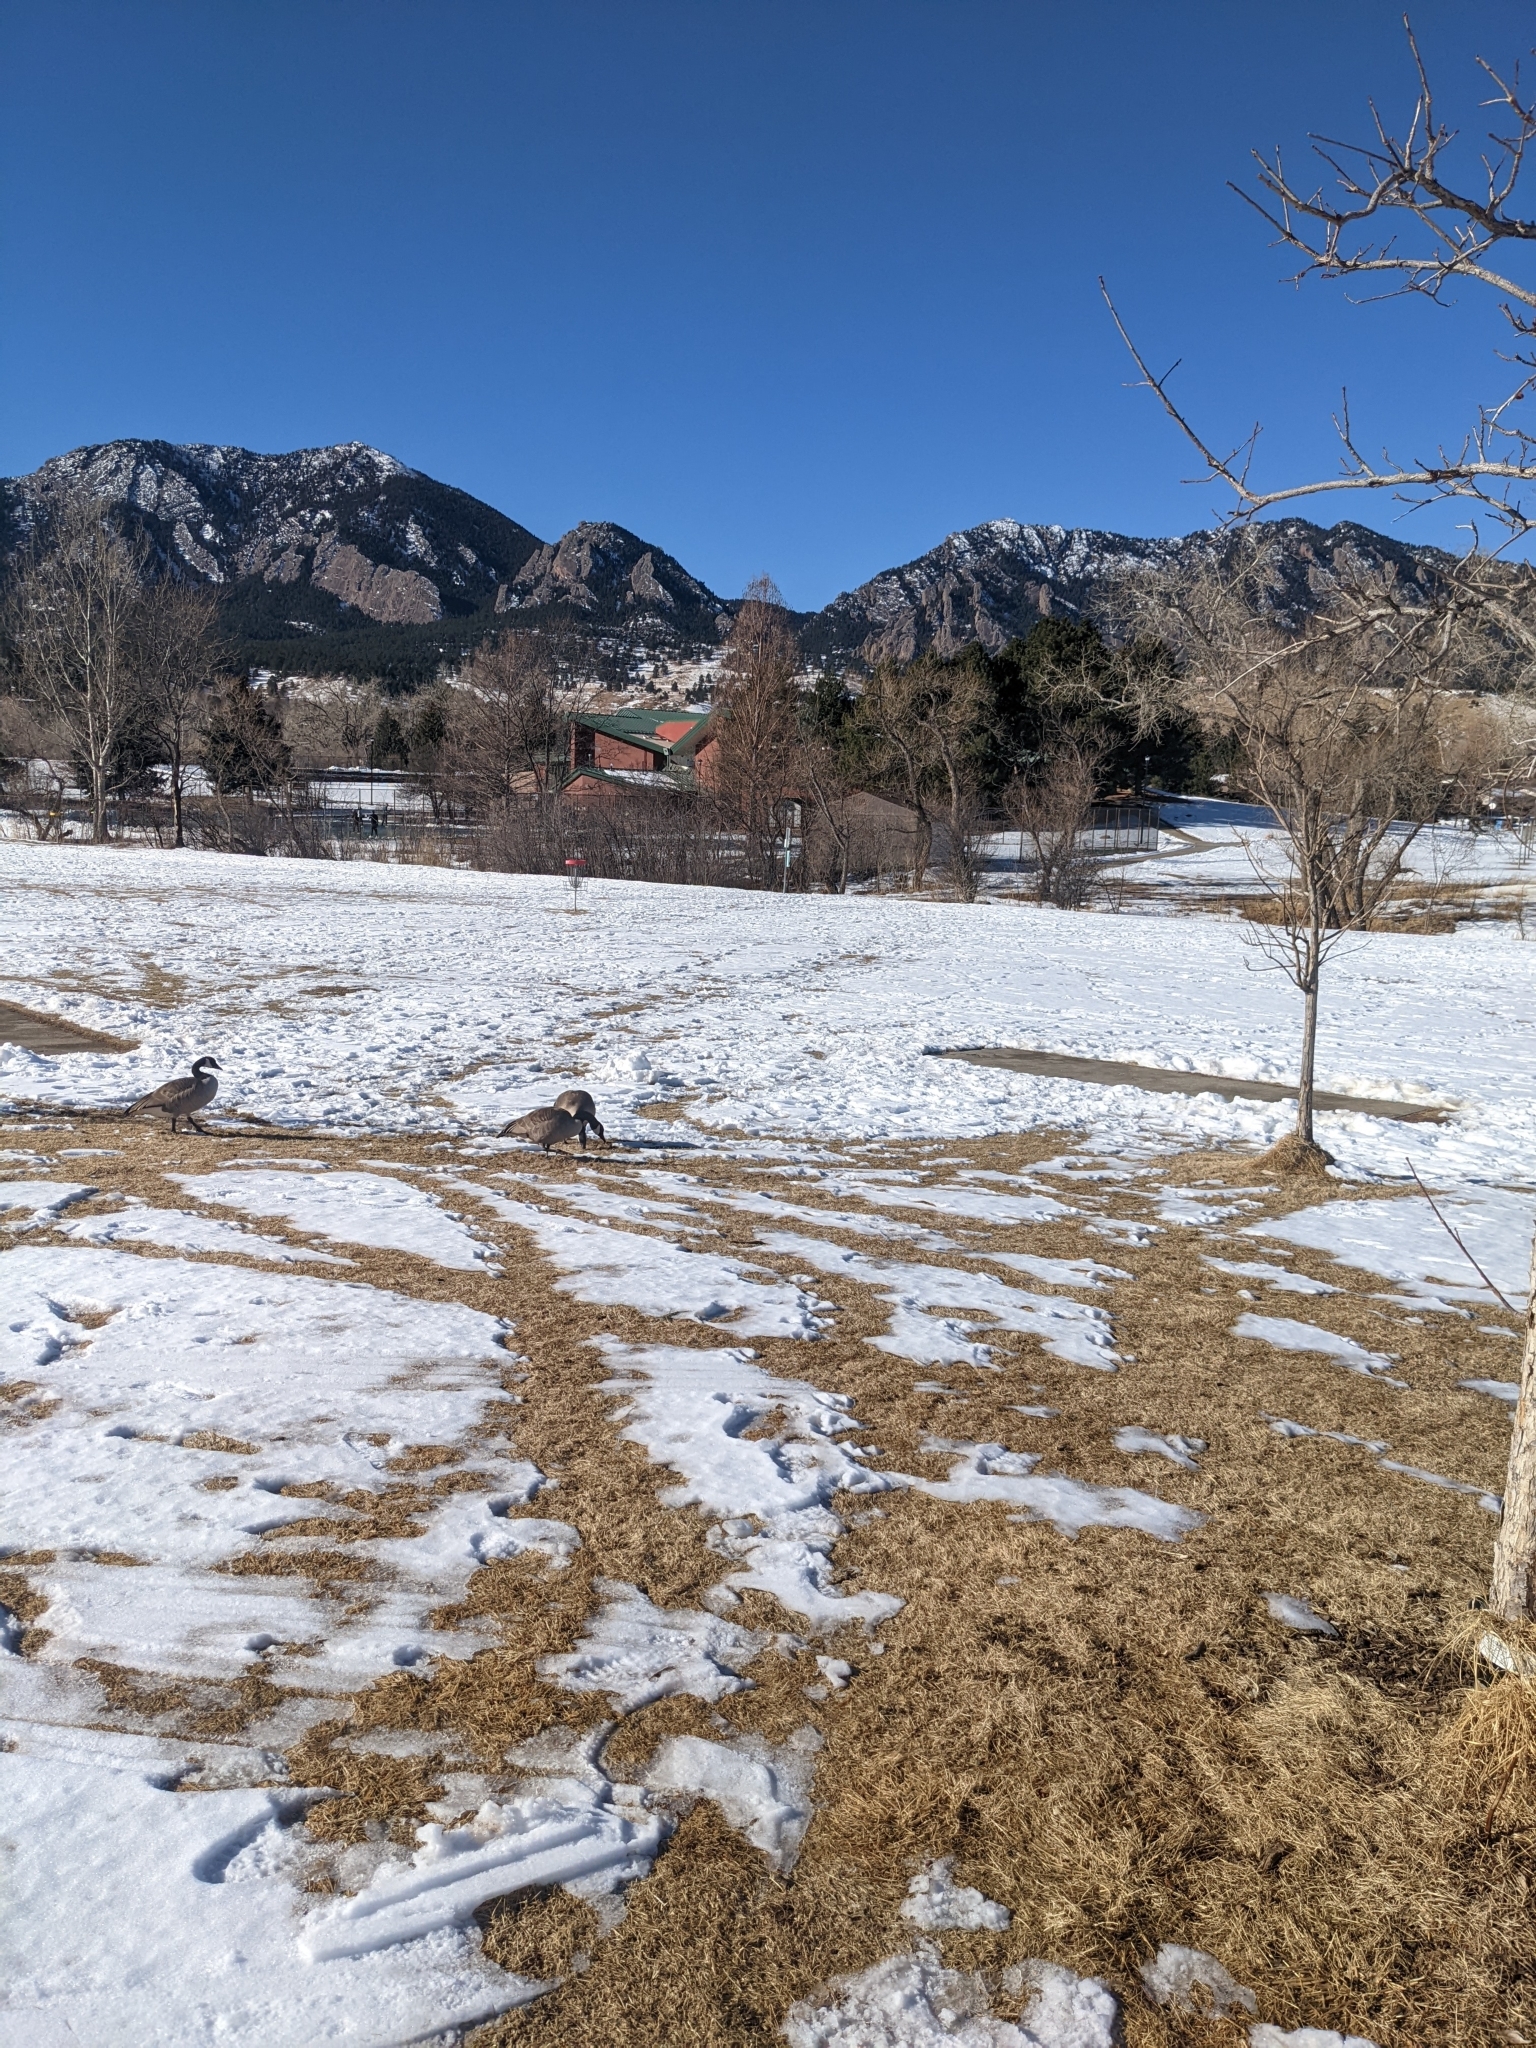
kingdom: Animalia
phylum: Chordata
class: Aves
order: Anseriformes
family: Anatidae
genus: Branta
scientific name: Branta canadensis
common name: Canada goose
